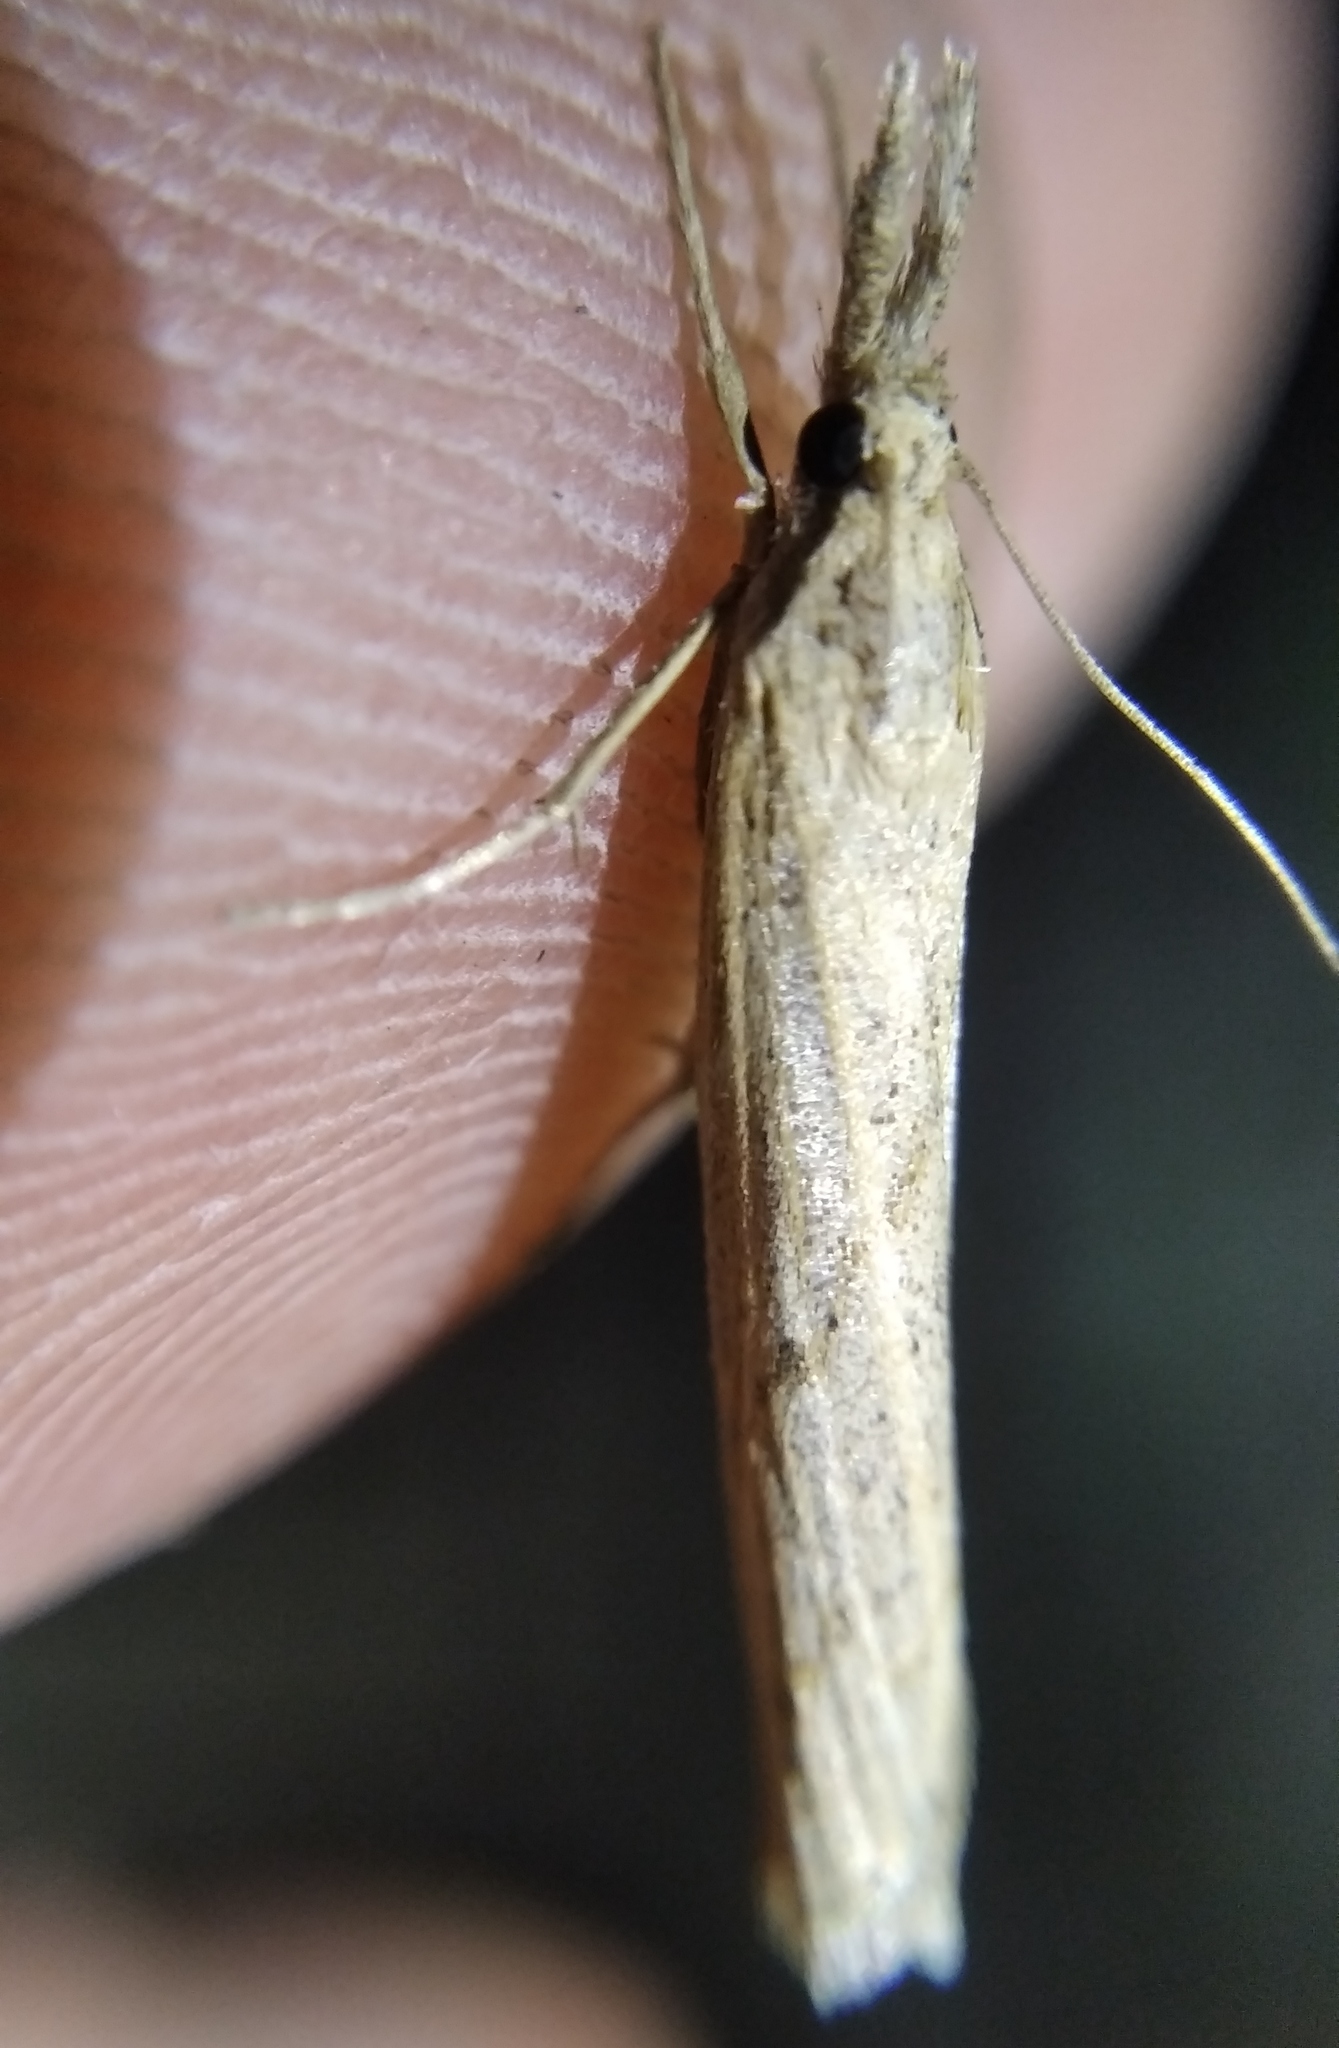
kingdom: Animalia
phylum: Arthropoda
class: Insecta
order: Lepidoptera
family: Crambidae
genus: Pediasia
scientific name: Pediasia contaminella
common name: Waste grass-veneer
